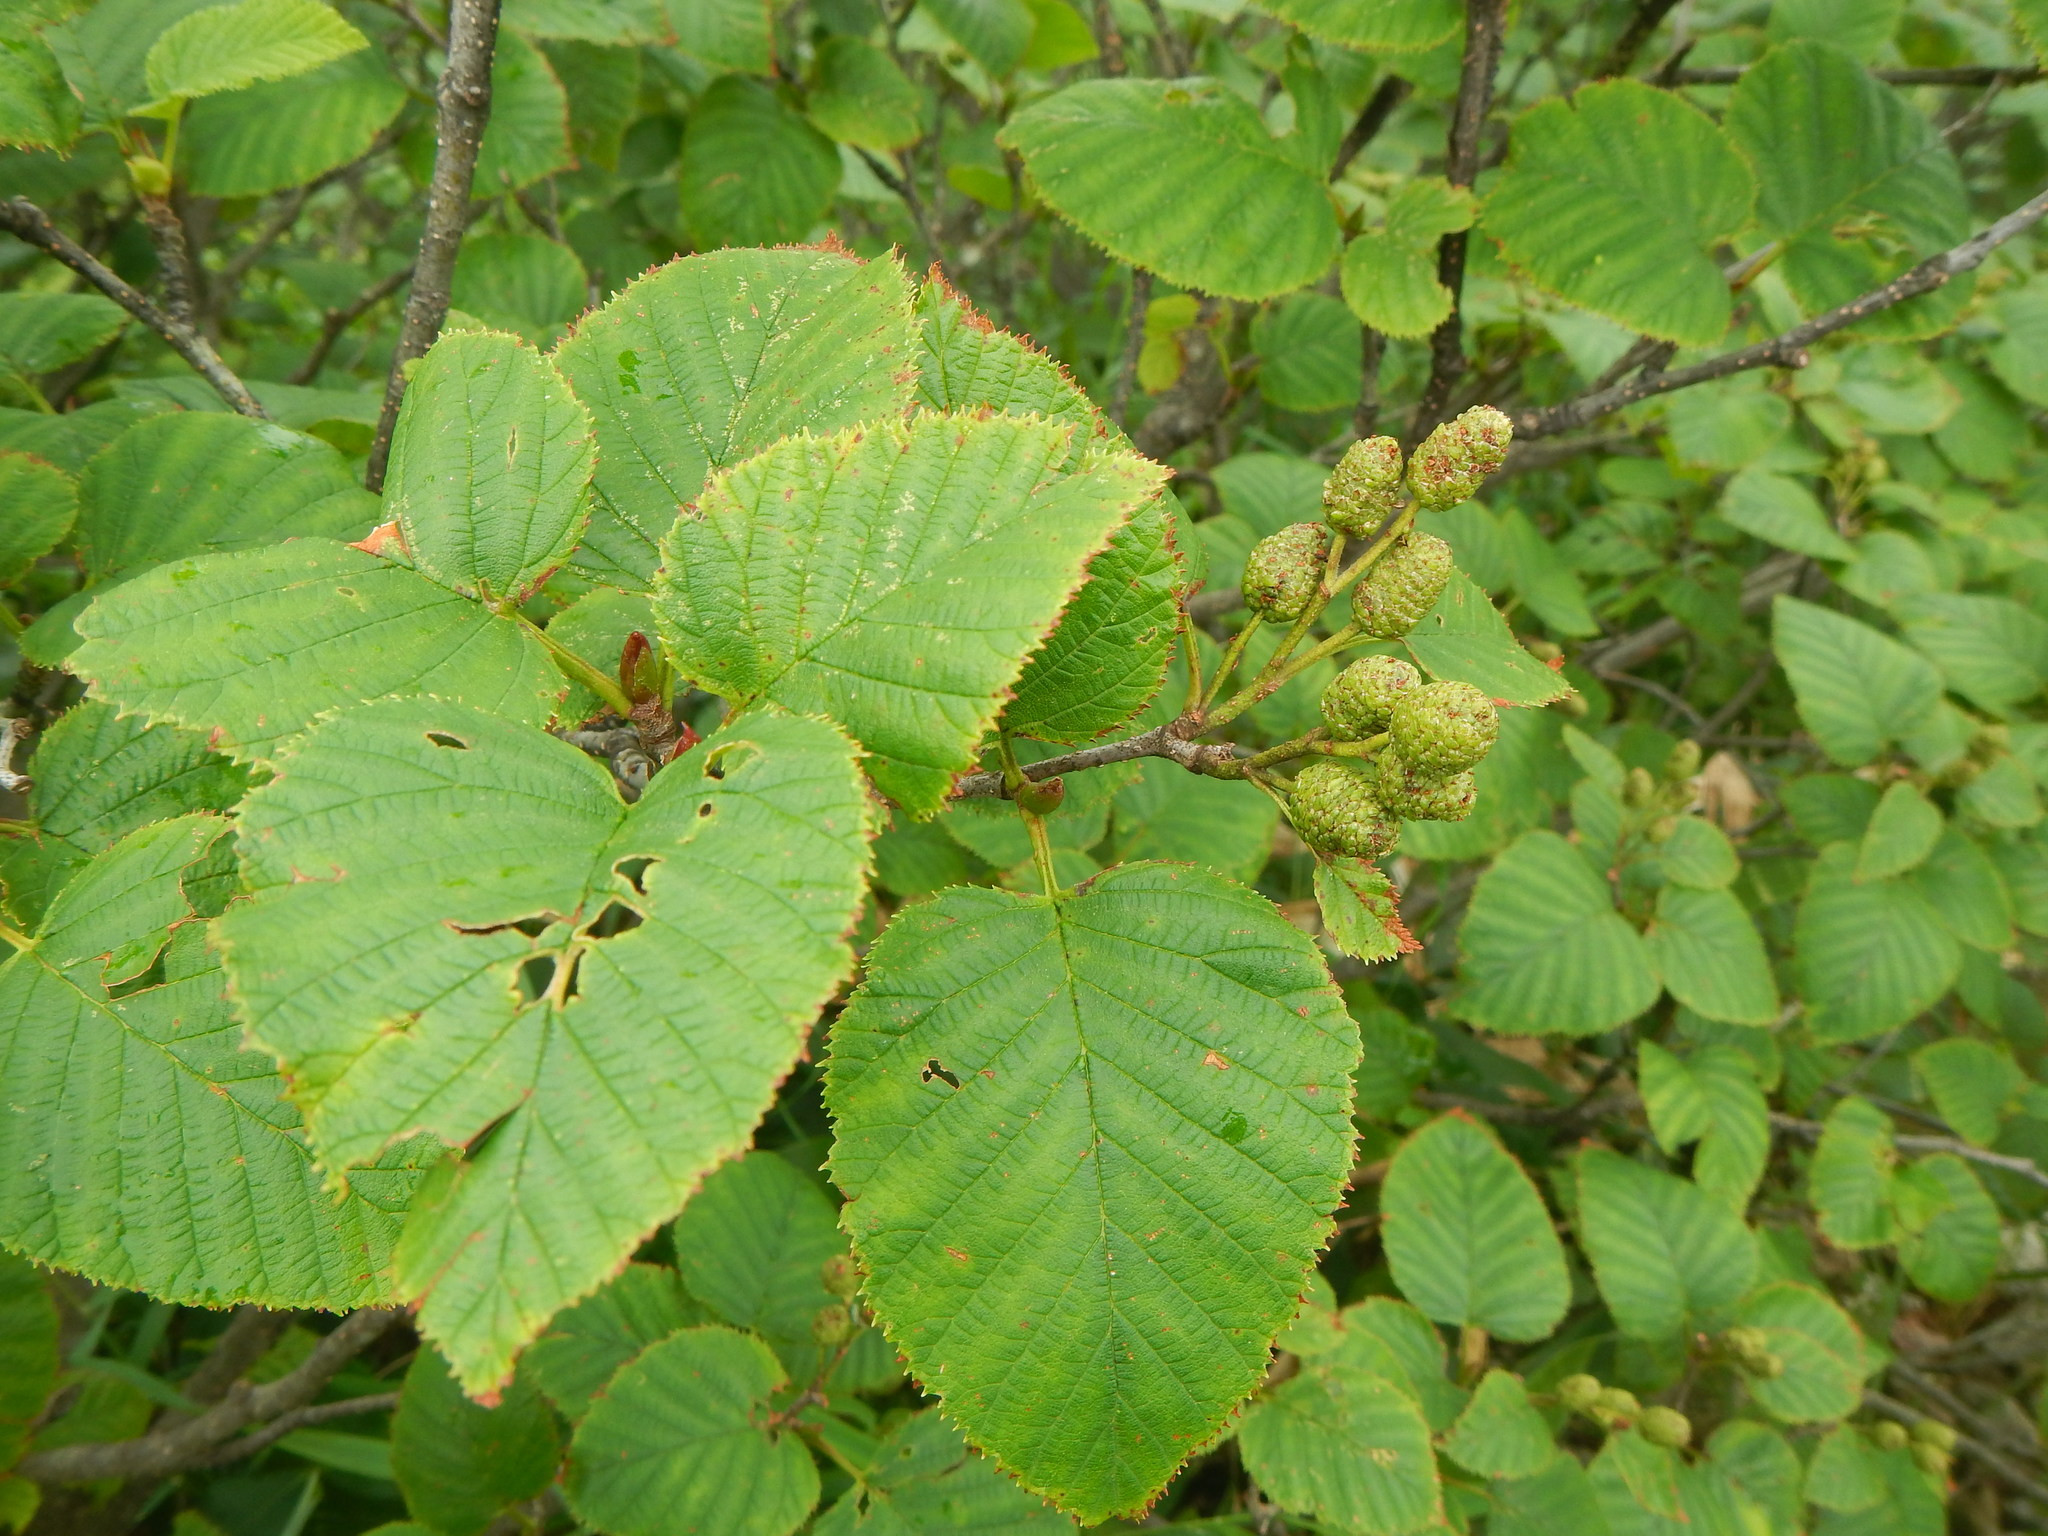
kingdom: Plantae
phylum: Tracheophyta
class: Magnoliopsida
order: Fagales
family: Betulaceae
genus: Alnus
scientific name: Alnus maximowiczii
